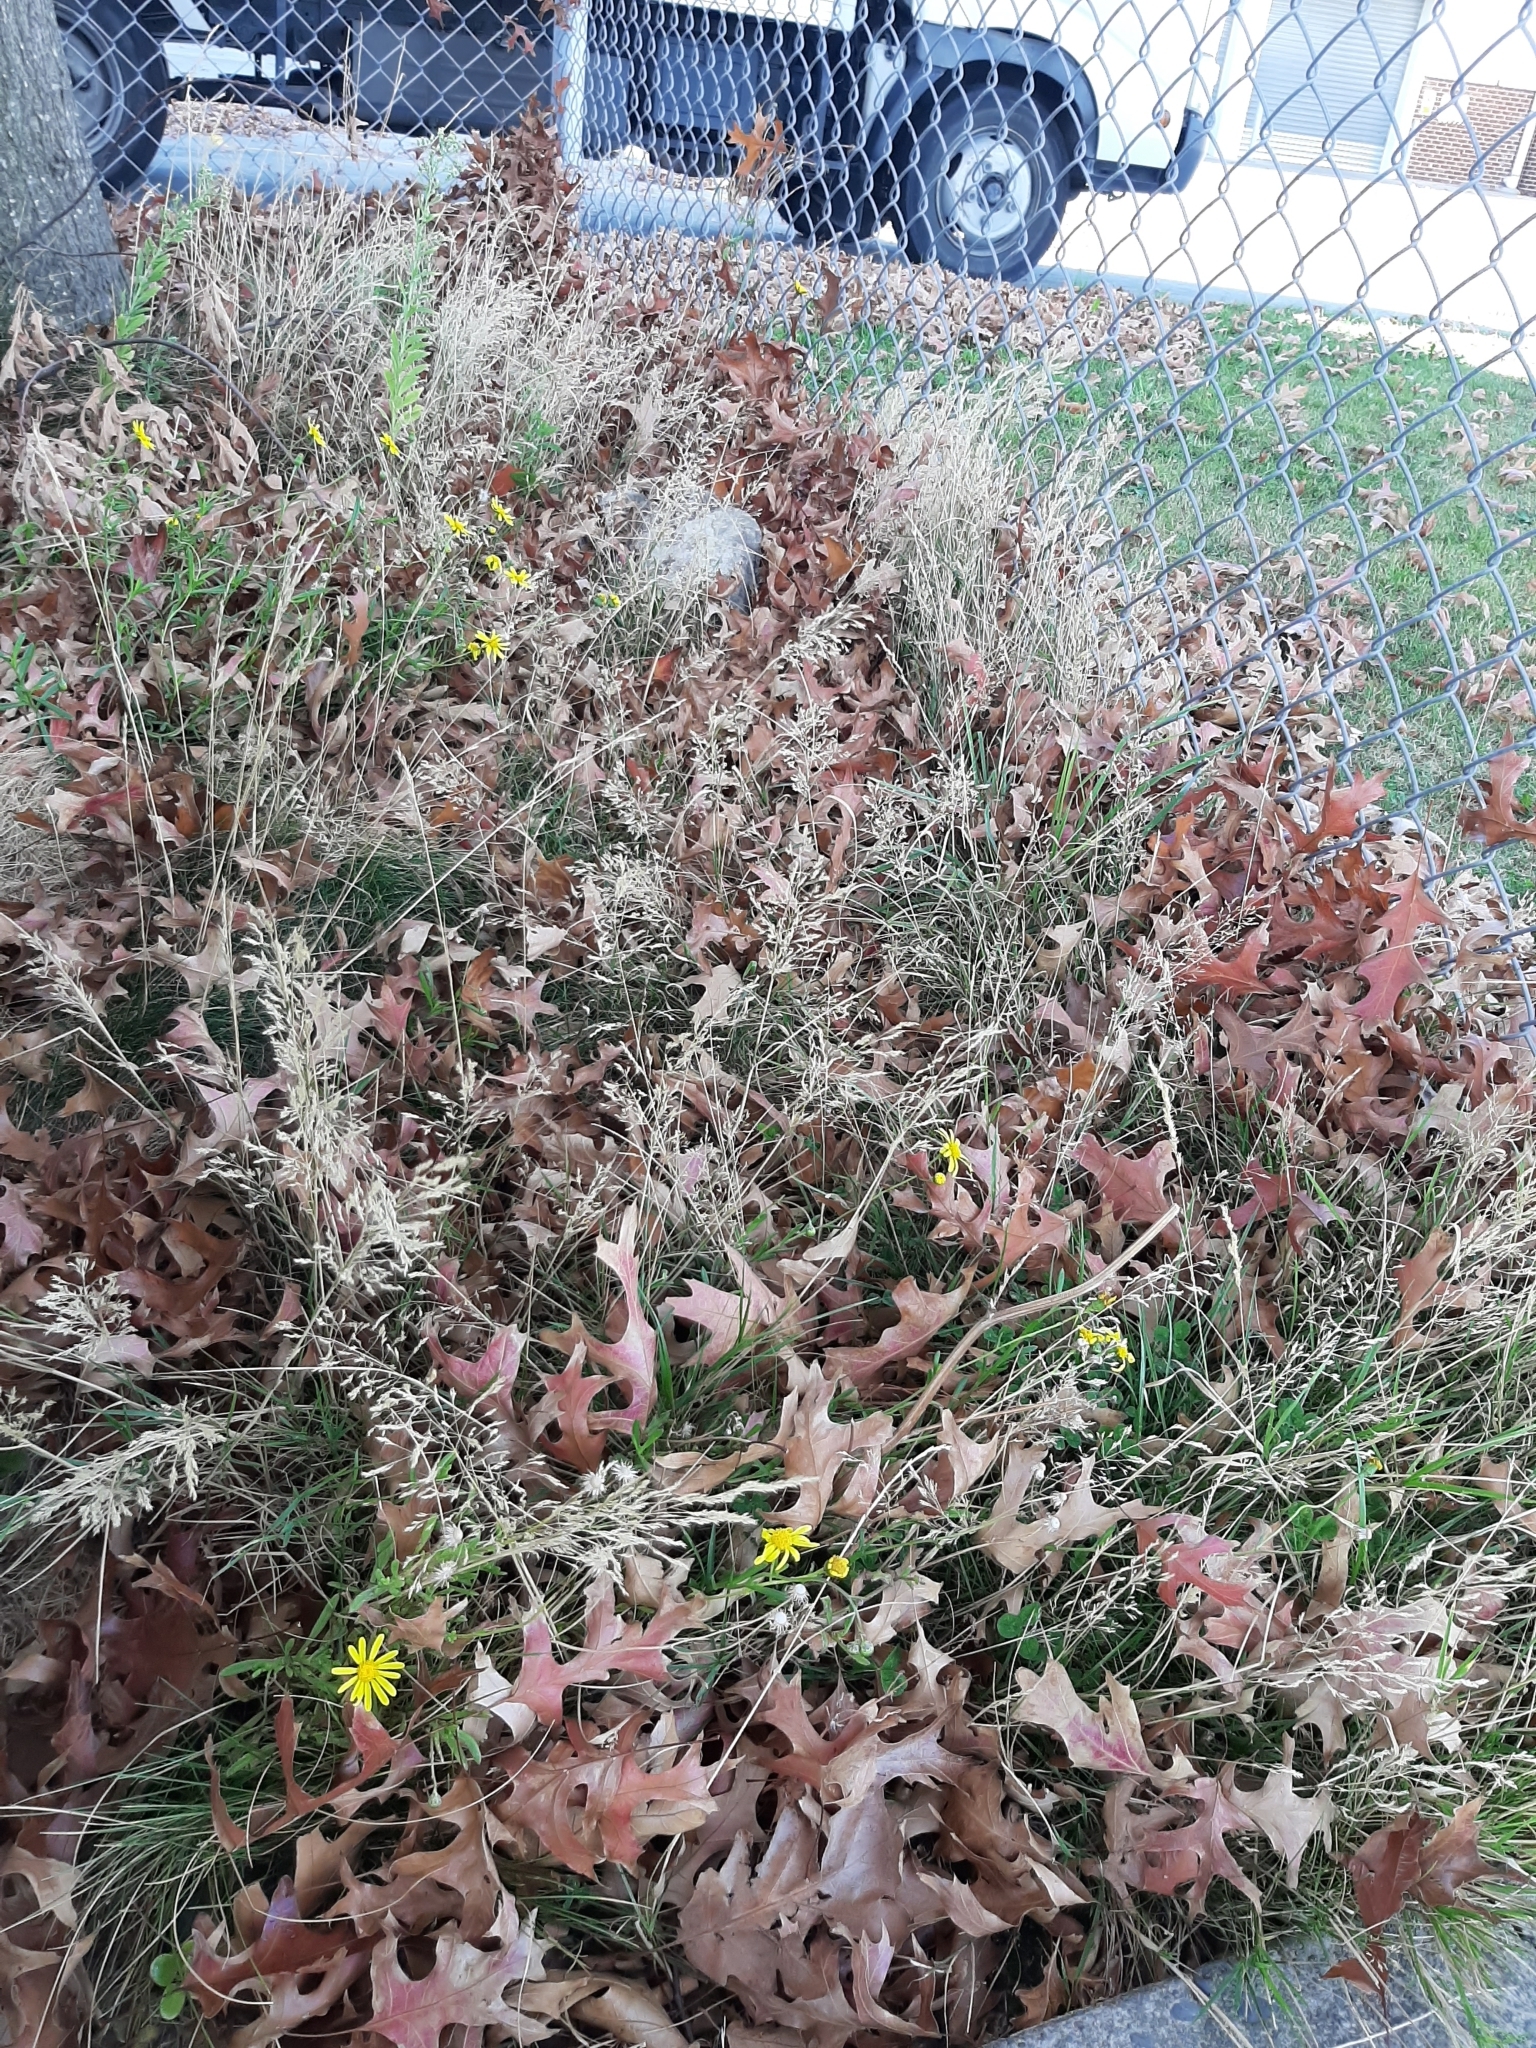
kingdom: Plantae
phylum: Tracheophyta
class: Liliopsida
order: Poales
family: Poaceae
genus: Agrostis
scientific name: Agrostis capillaris
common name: Colonial bentgrass
